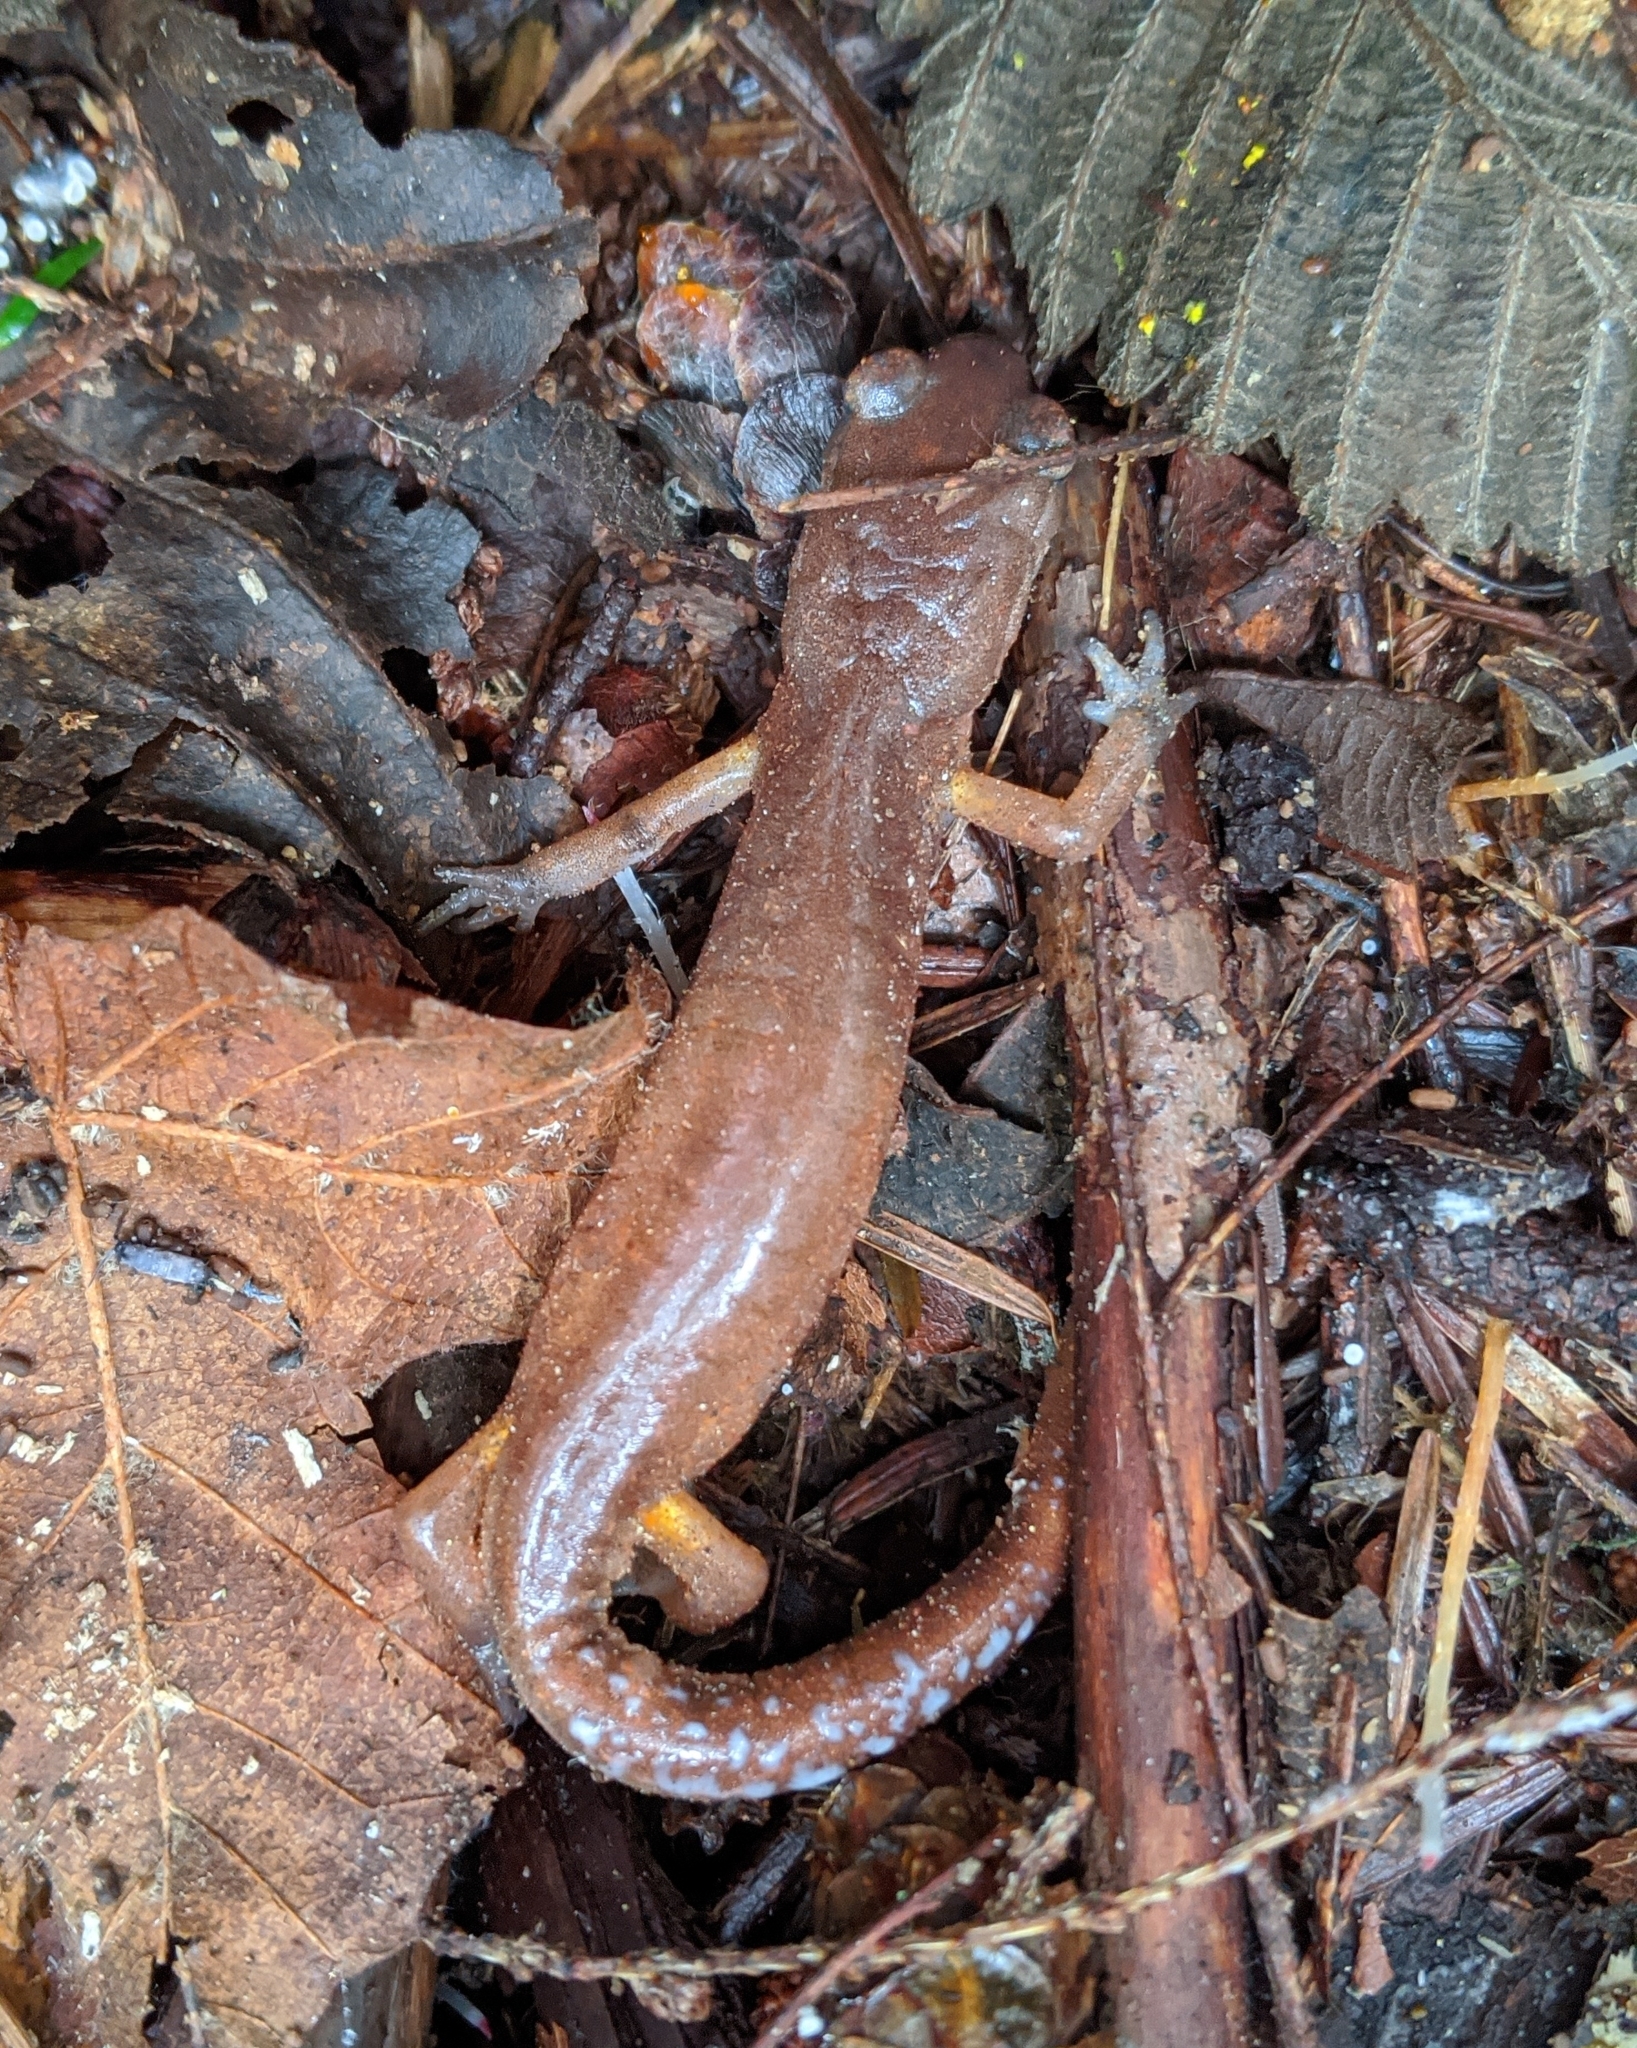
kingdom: Animalia
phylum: Chordata
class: Amphibia
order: Caudata
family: Plethodontidae
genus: Ensatina
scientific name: Ensatina eschscholtzii
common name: Ensatina
